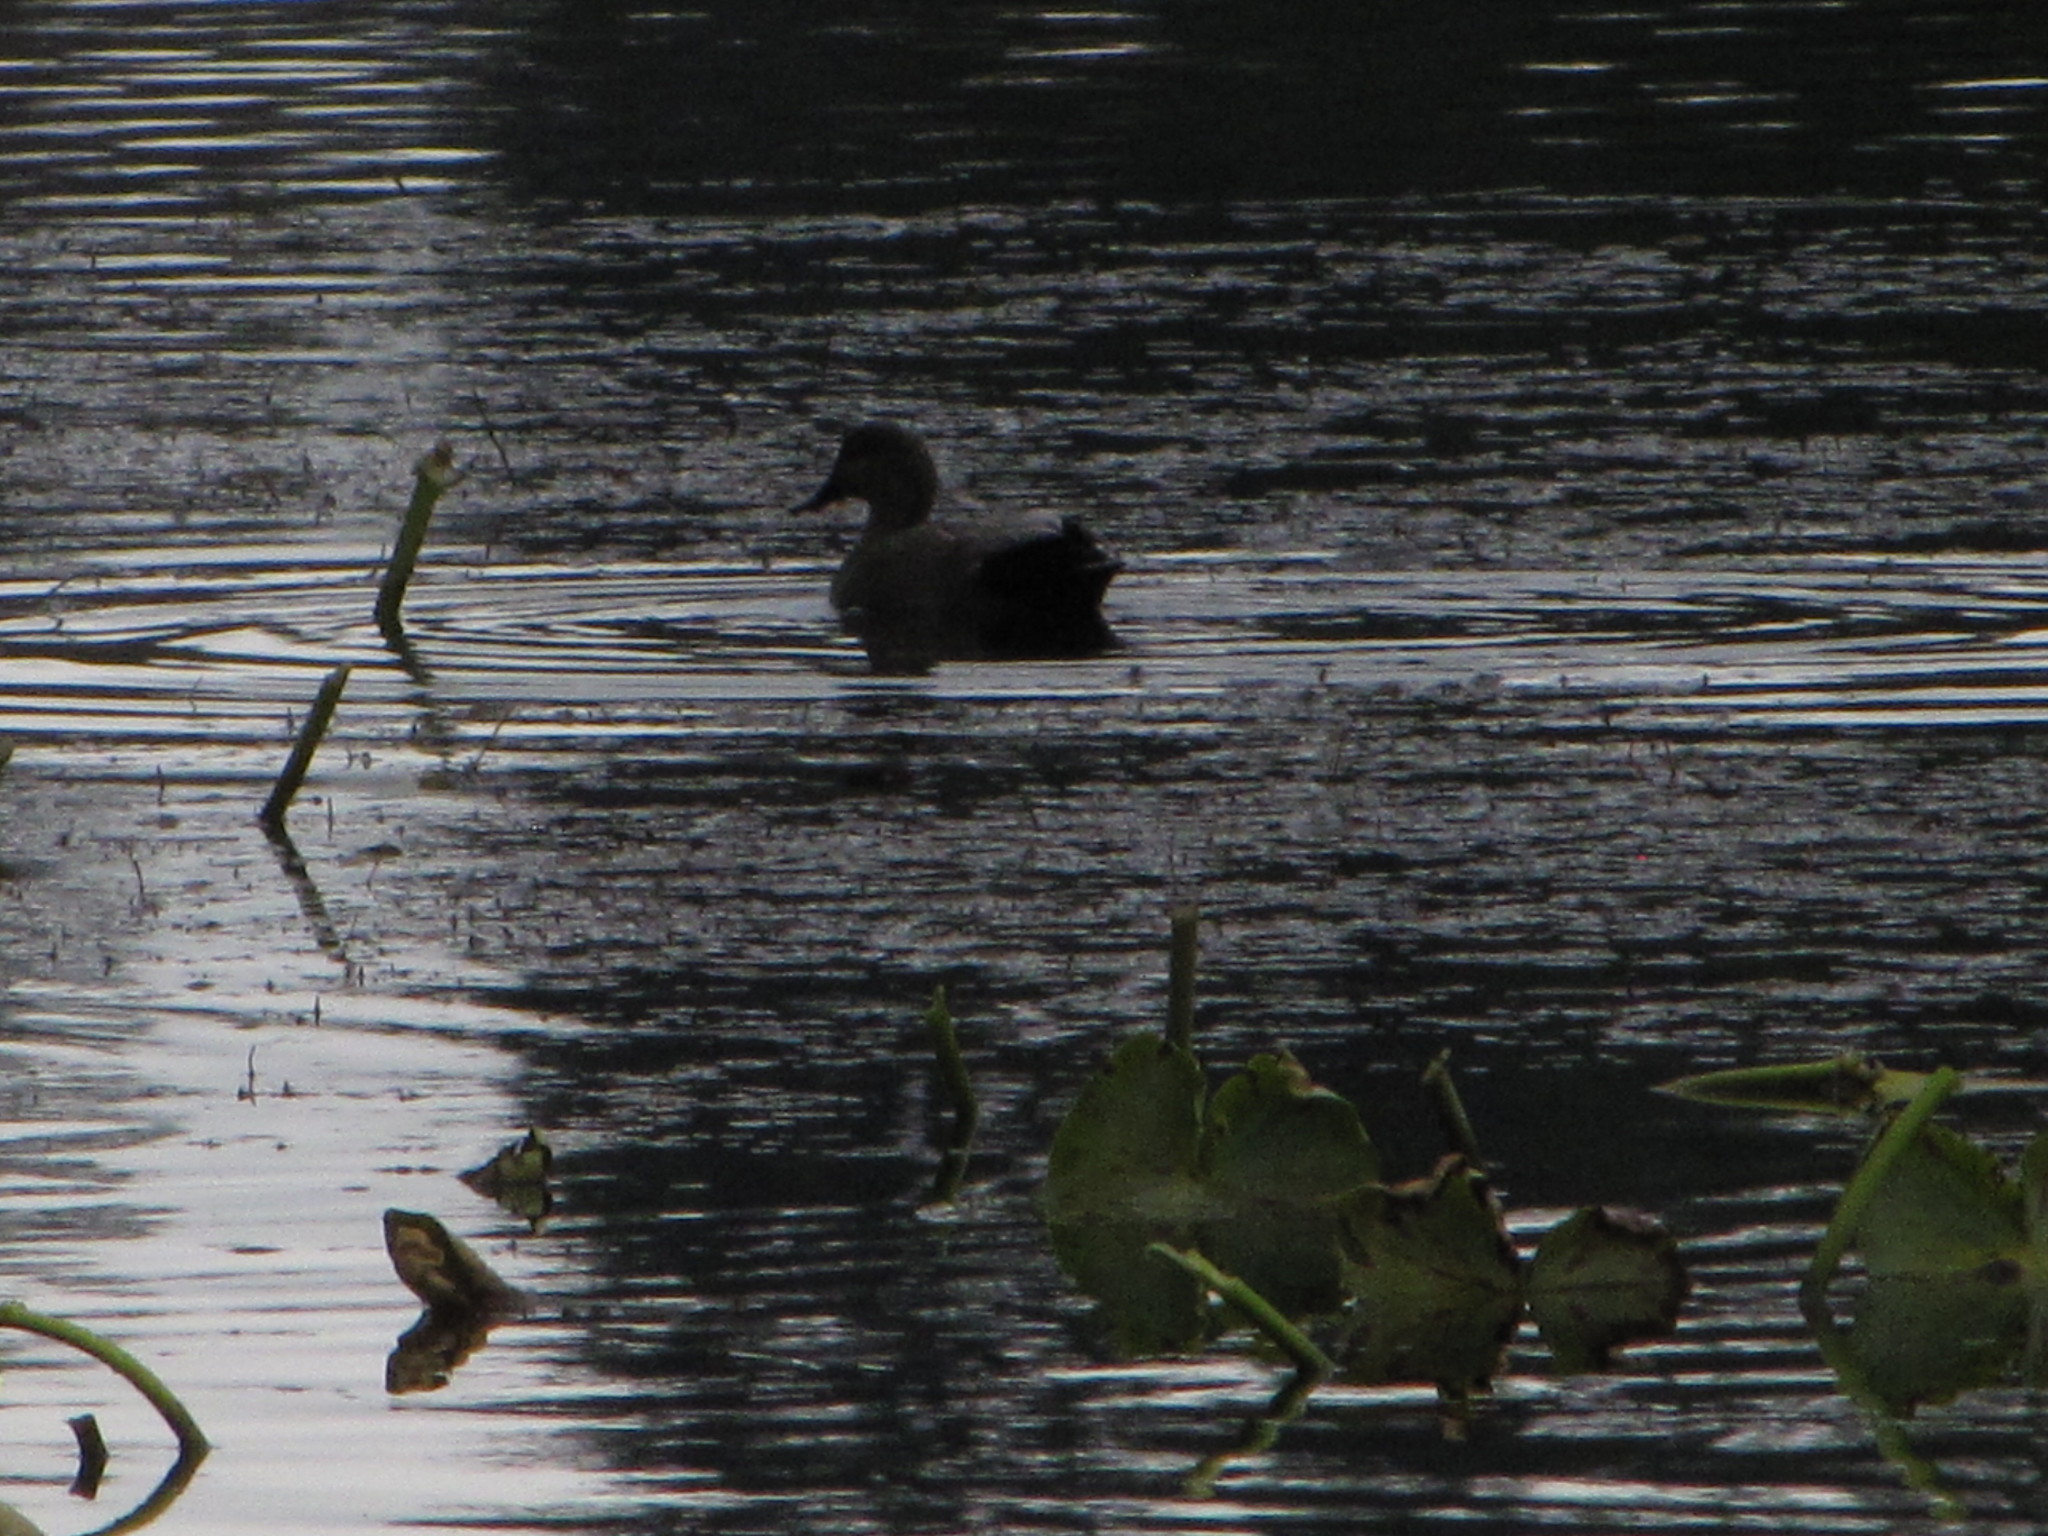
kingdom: Animalia
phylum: Chordata
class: Aves
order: Anseriformes
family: Anatidae
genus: Mareca
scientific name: Mareca strepera
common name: Gadwall
